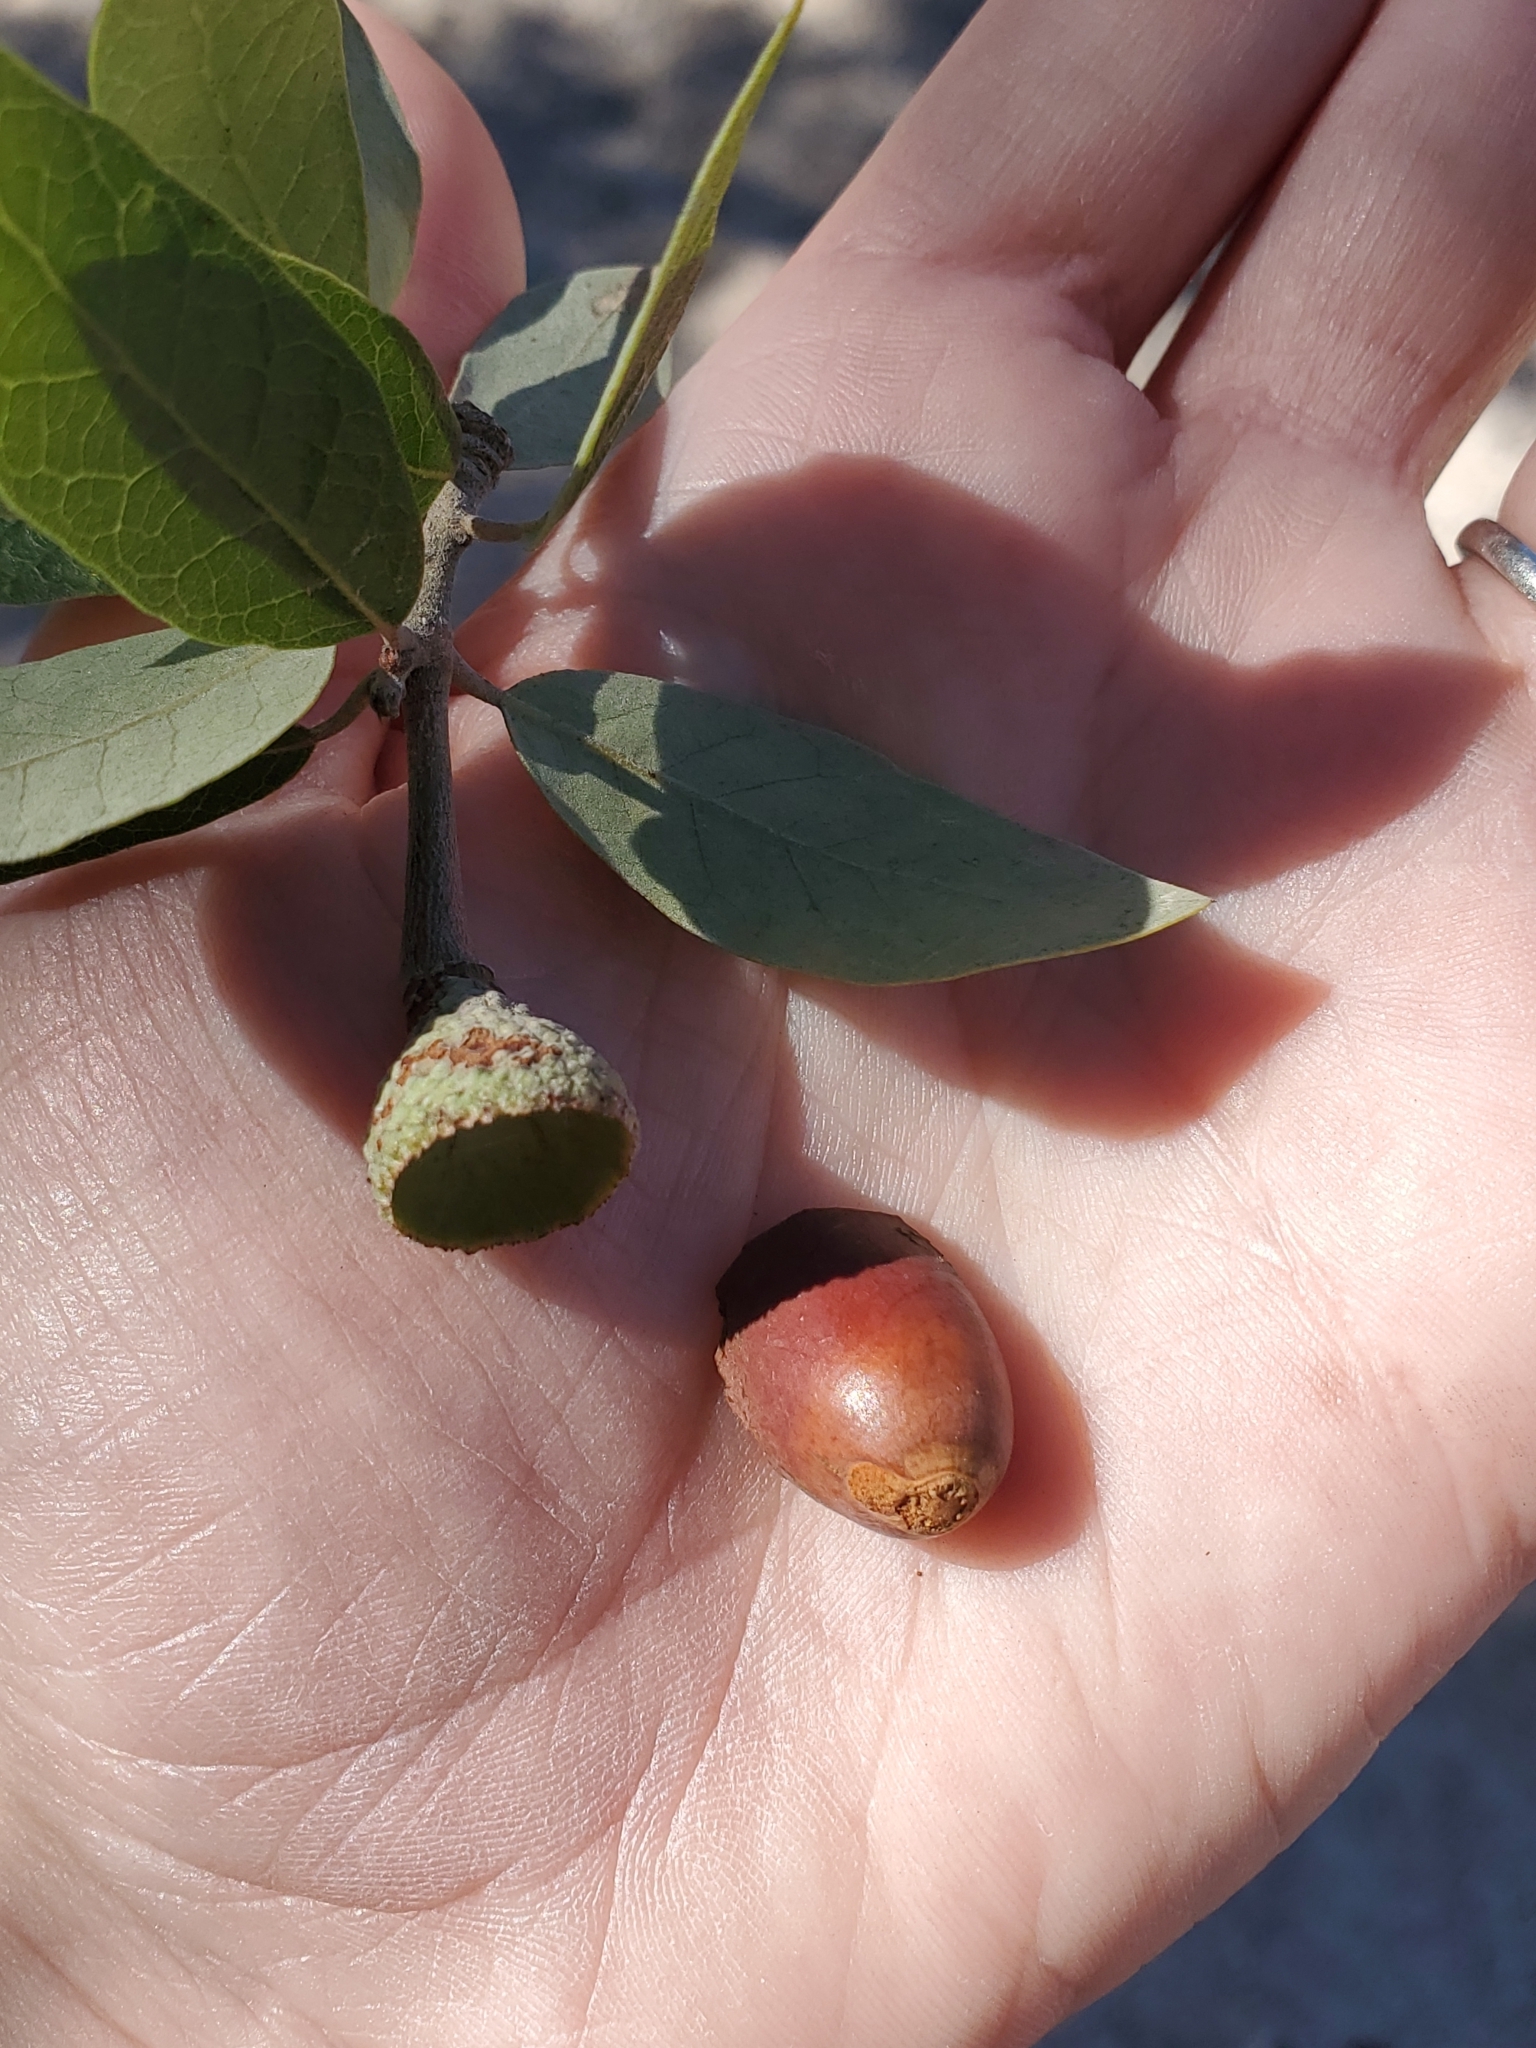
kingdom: Plantae
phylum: Tracheophyta
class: Magnoliopsida
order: Fagales
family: Fagaceae
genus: Quercus
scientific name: Quercus brandegeei
